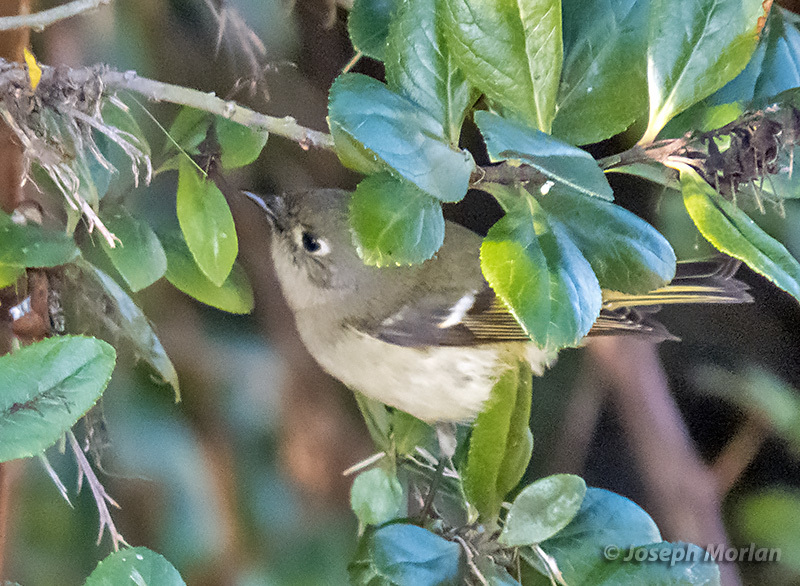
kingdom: Animalia
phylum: Chordata
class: Aves
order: Passeriformes
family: Regulidae
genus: Regulus
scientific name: Regulus calendula
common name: Ruby-crowned kinglet
